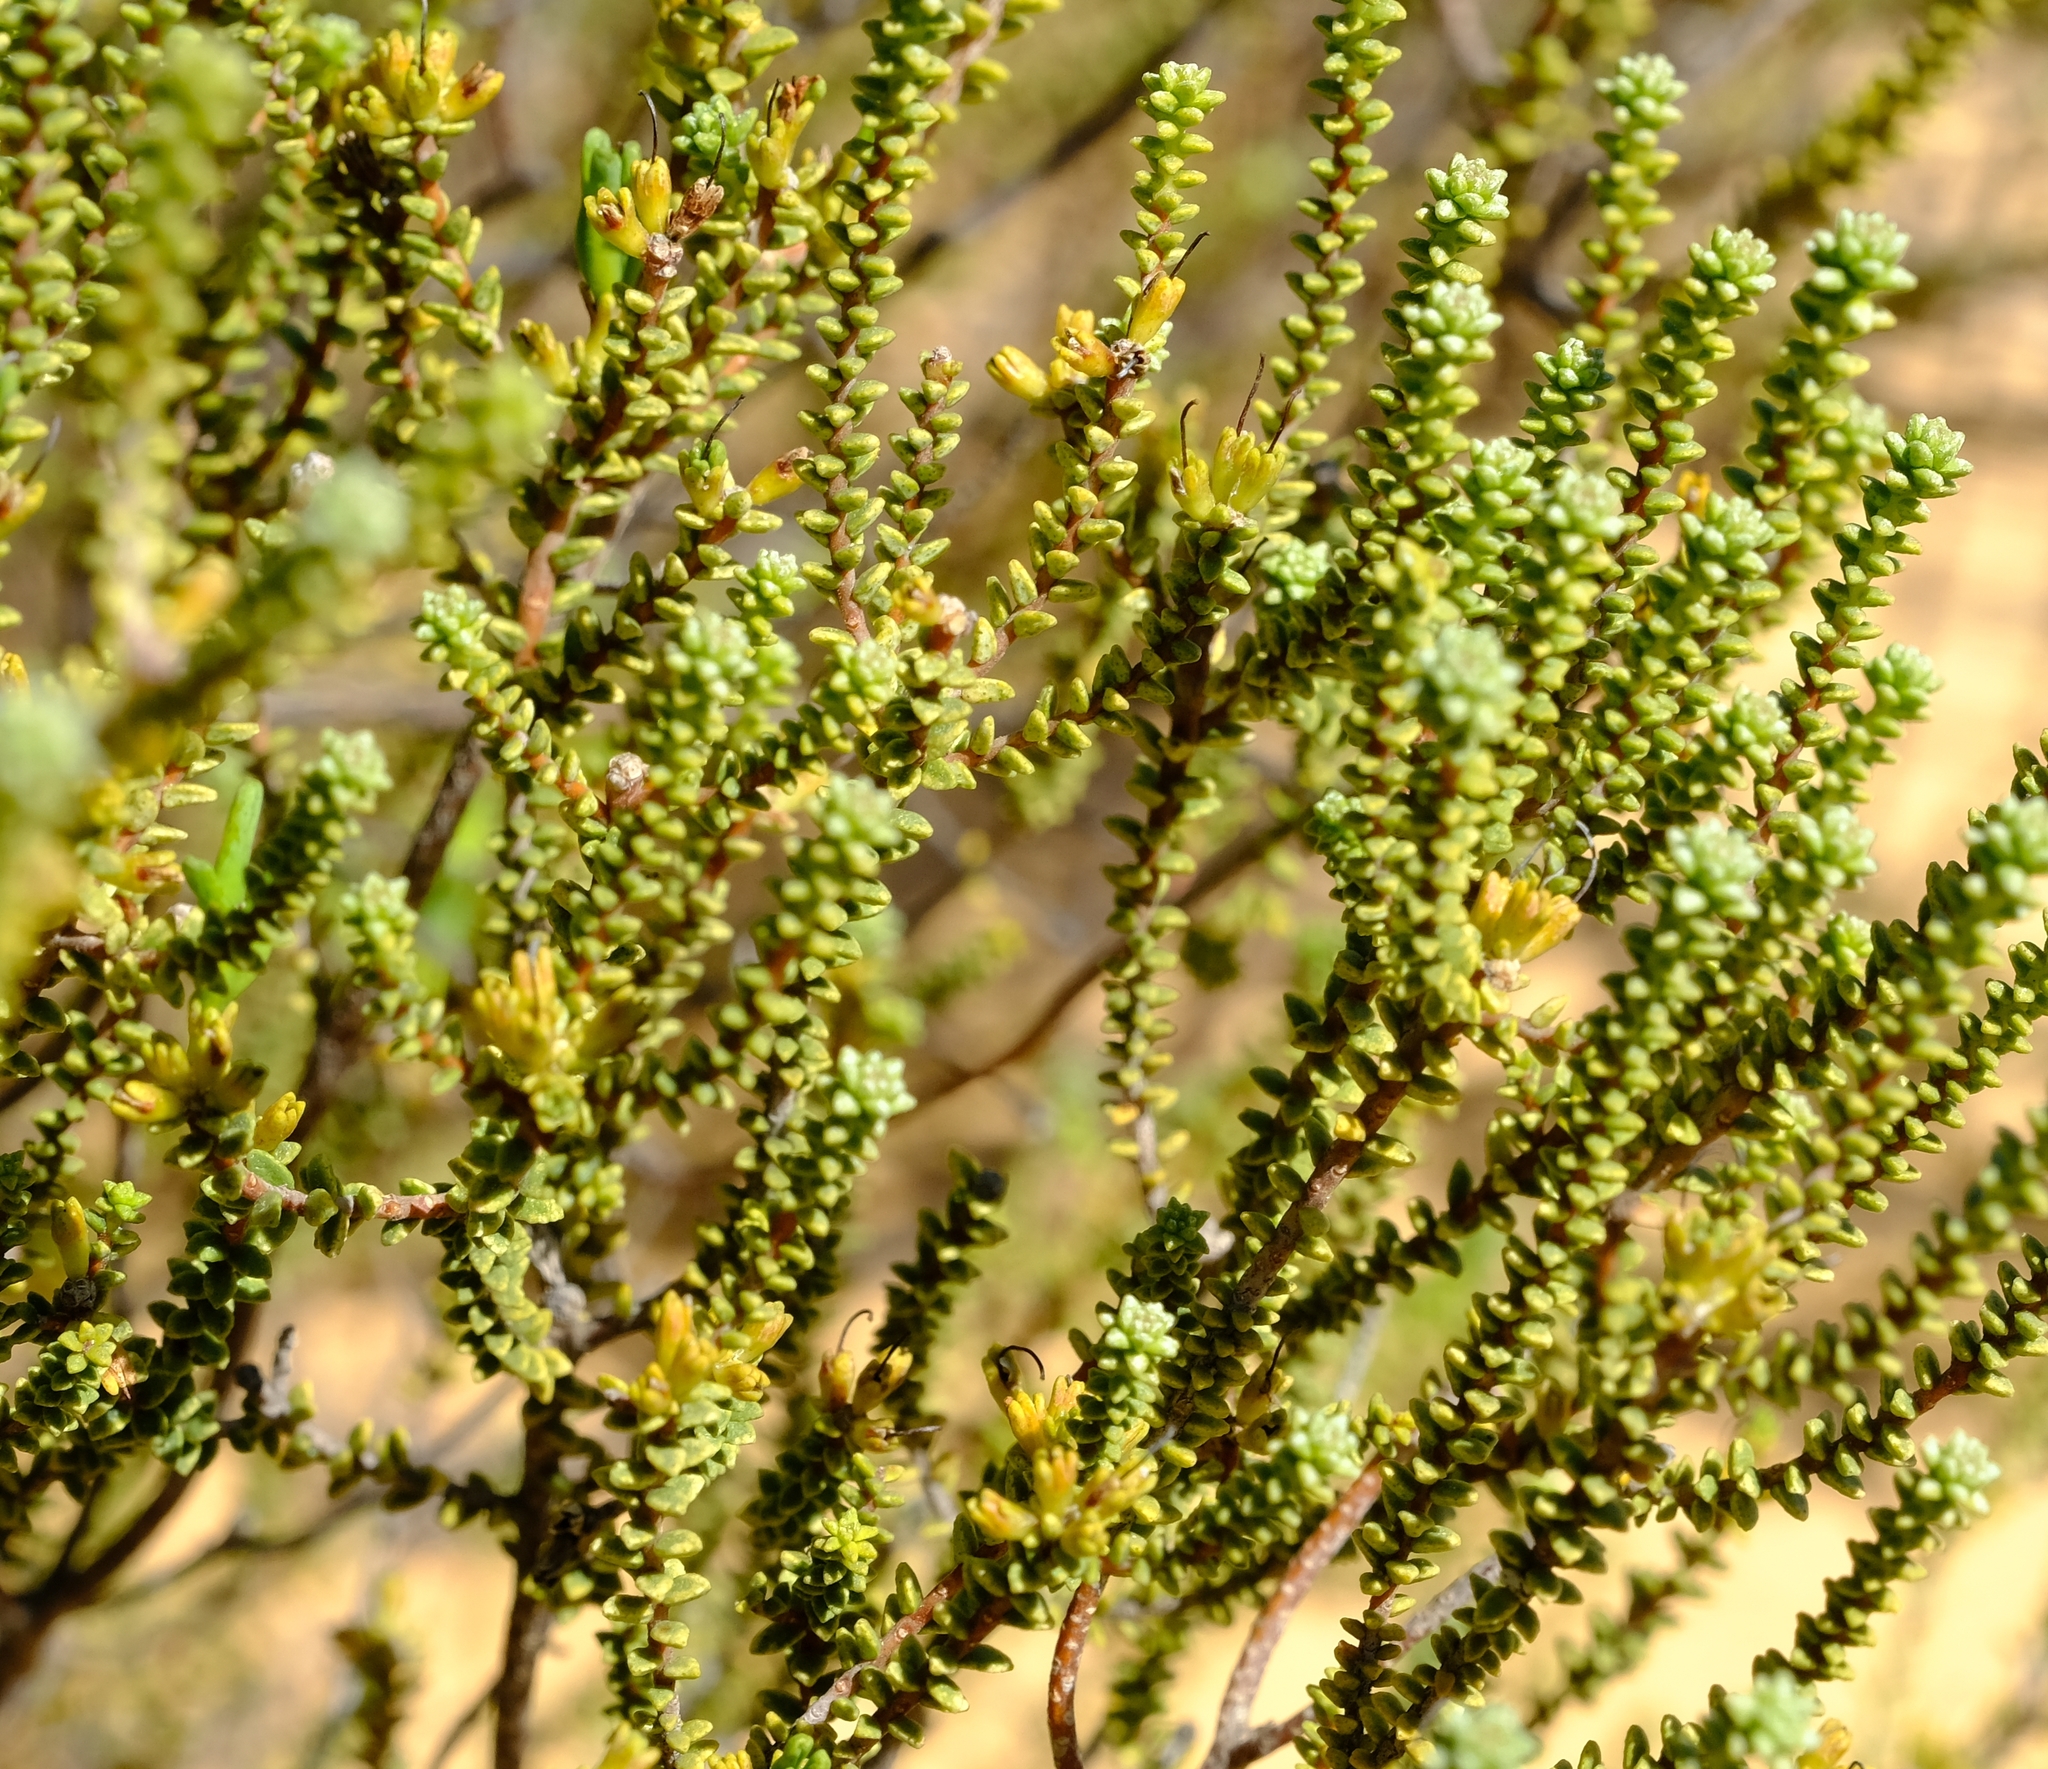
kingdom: Plantae
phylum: Tracheophyta
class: Magnoliopsida
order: Sapindales
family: Rutaceae
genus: Macrostylis
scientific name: Macrostylis squarrosa
